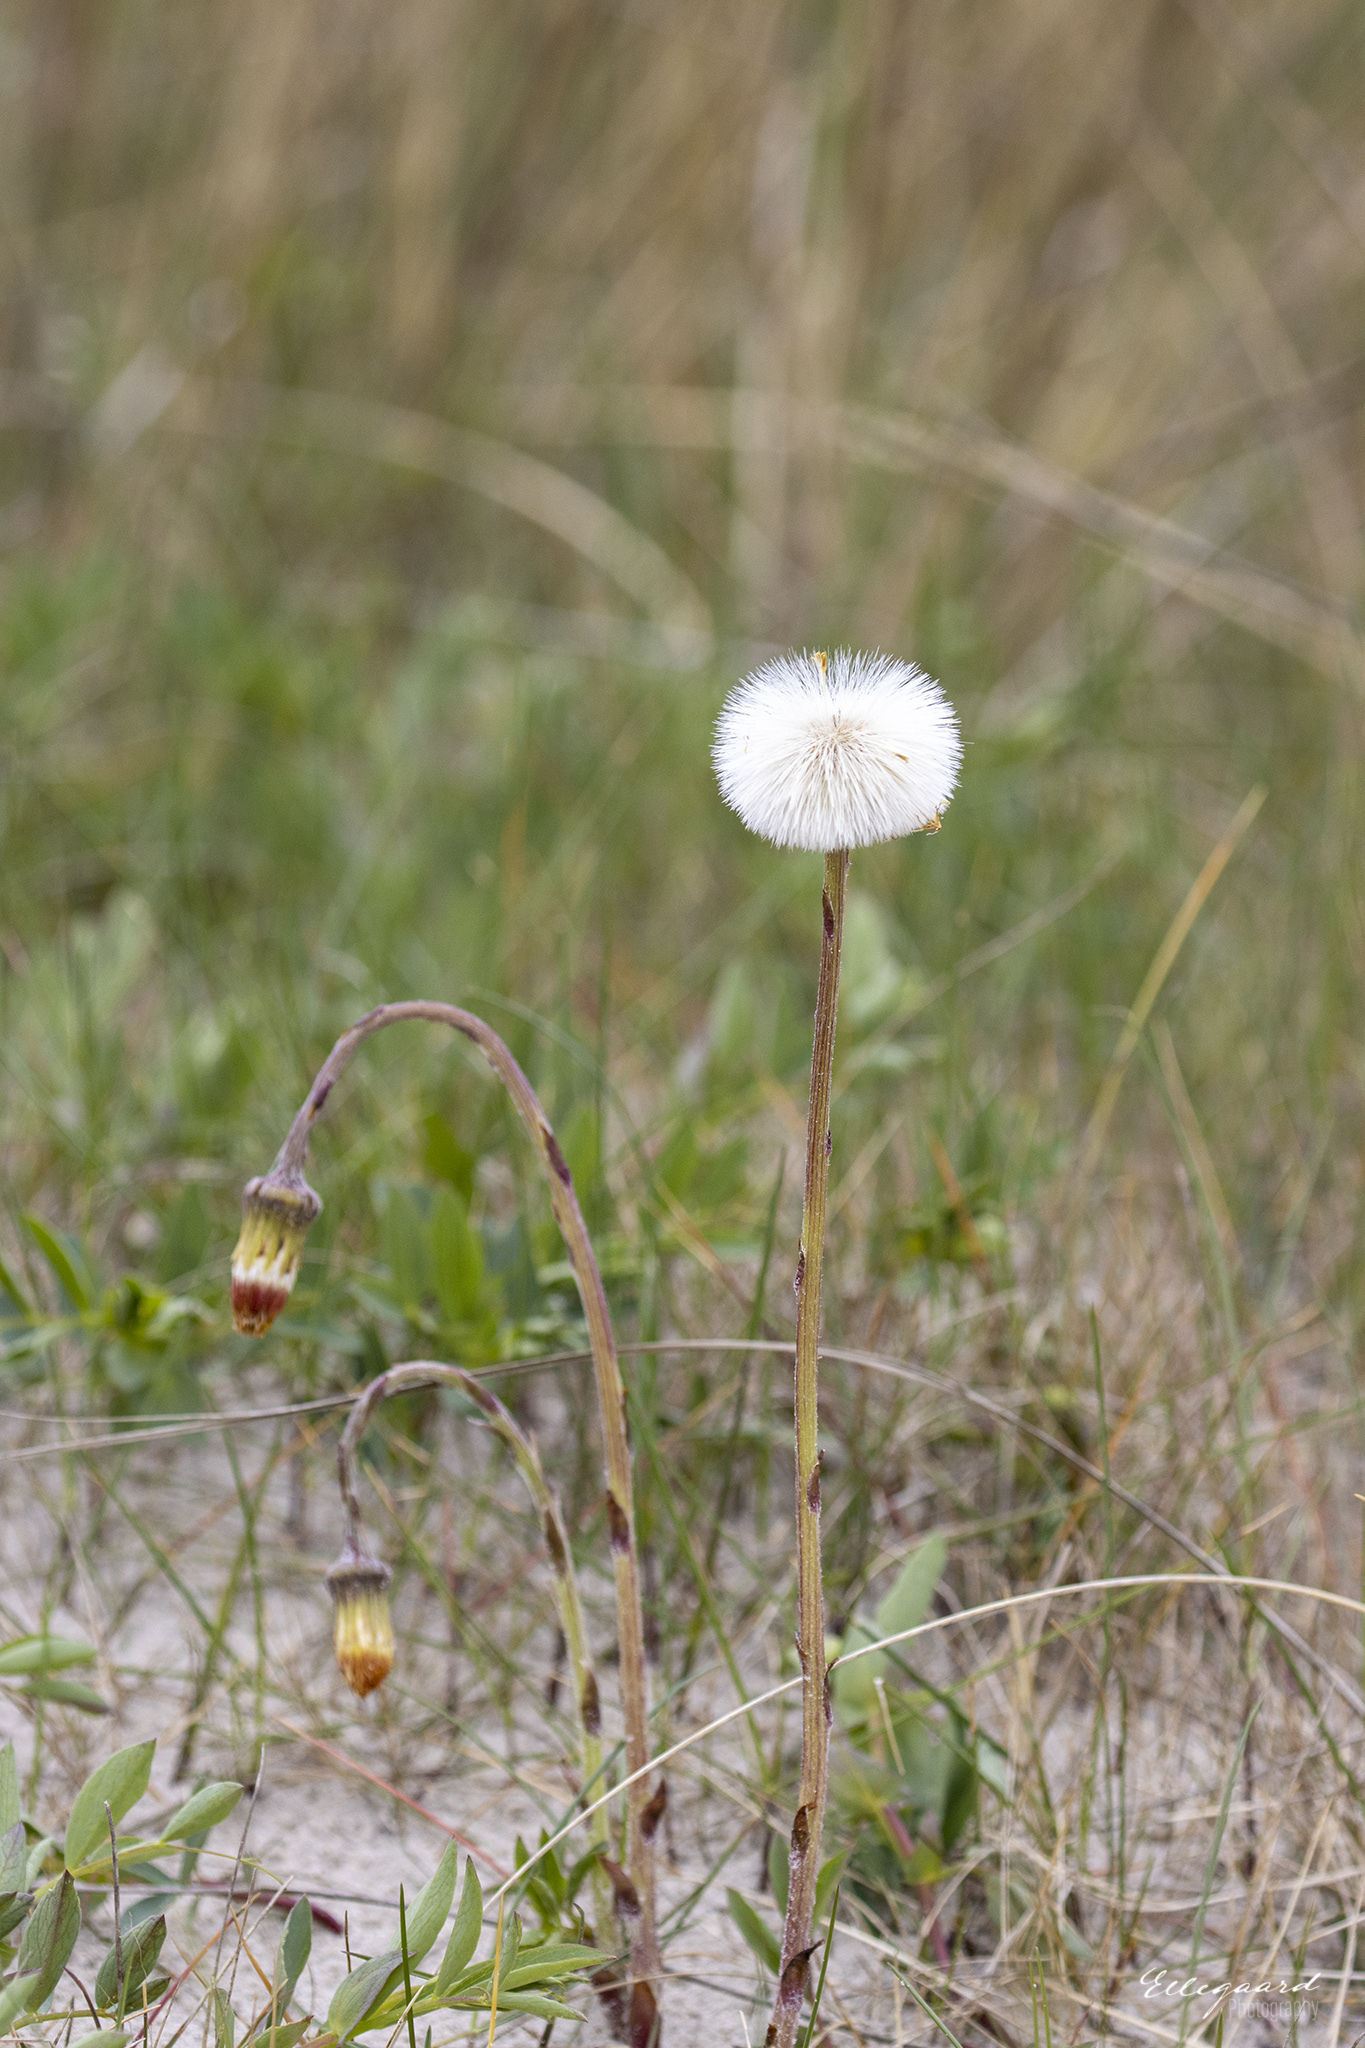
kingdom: Plantae
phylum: Tracheophyta
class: Magnoliopsida
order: Asterales
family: Asteraceae
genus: Tussilago
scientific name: Tussilago farfara
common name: Coltsfoot
